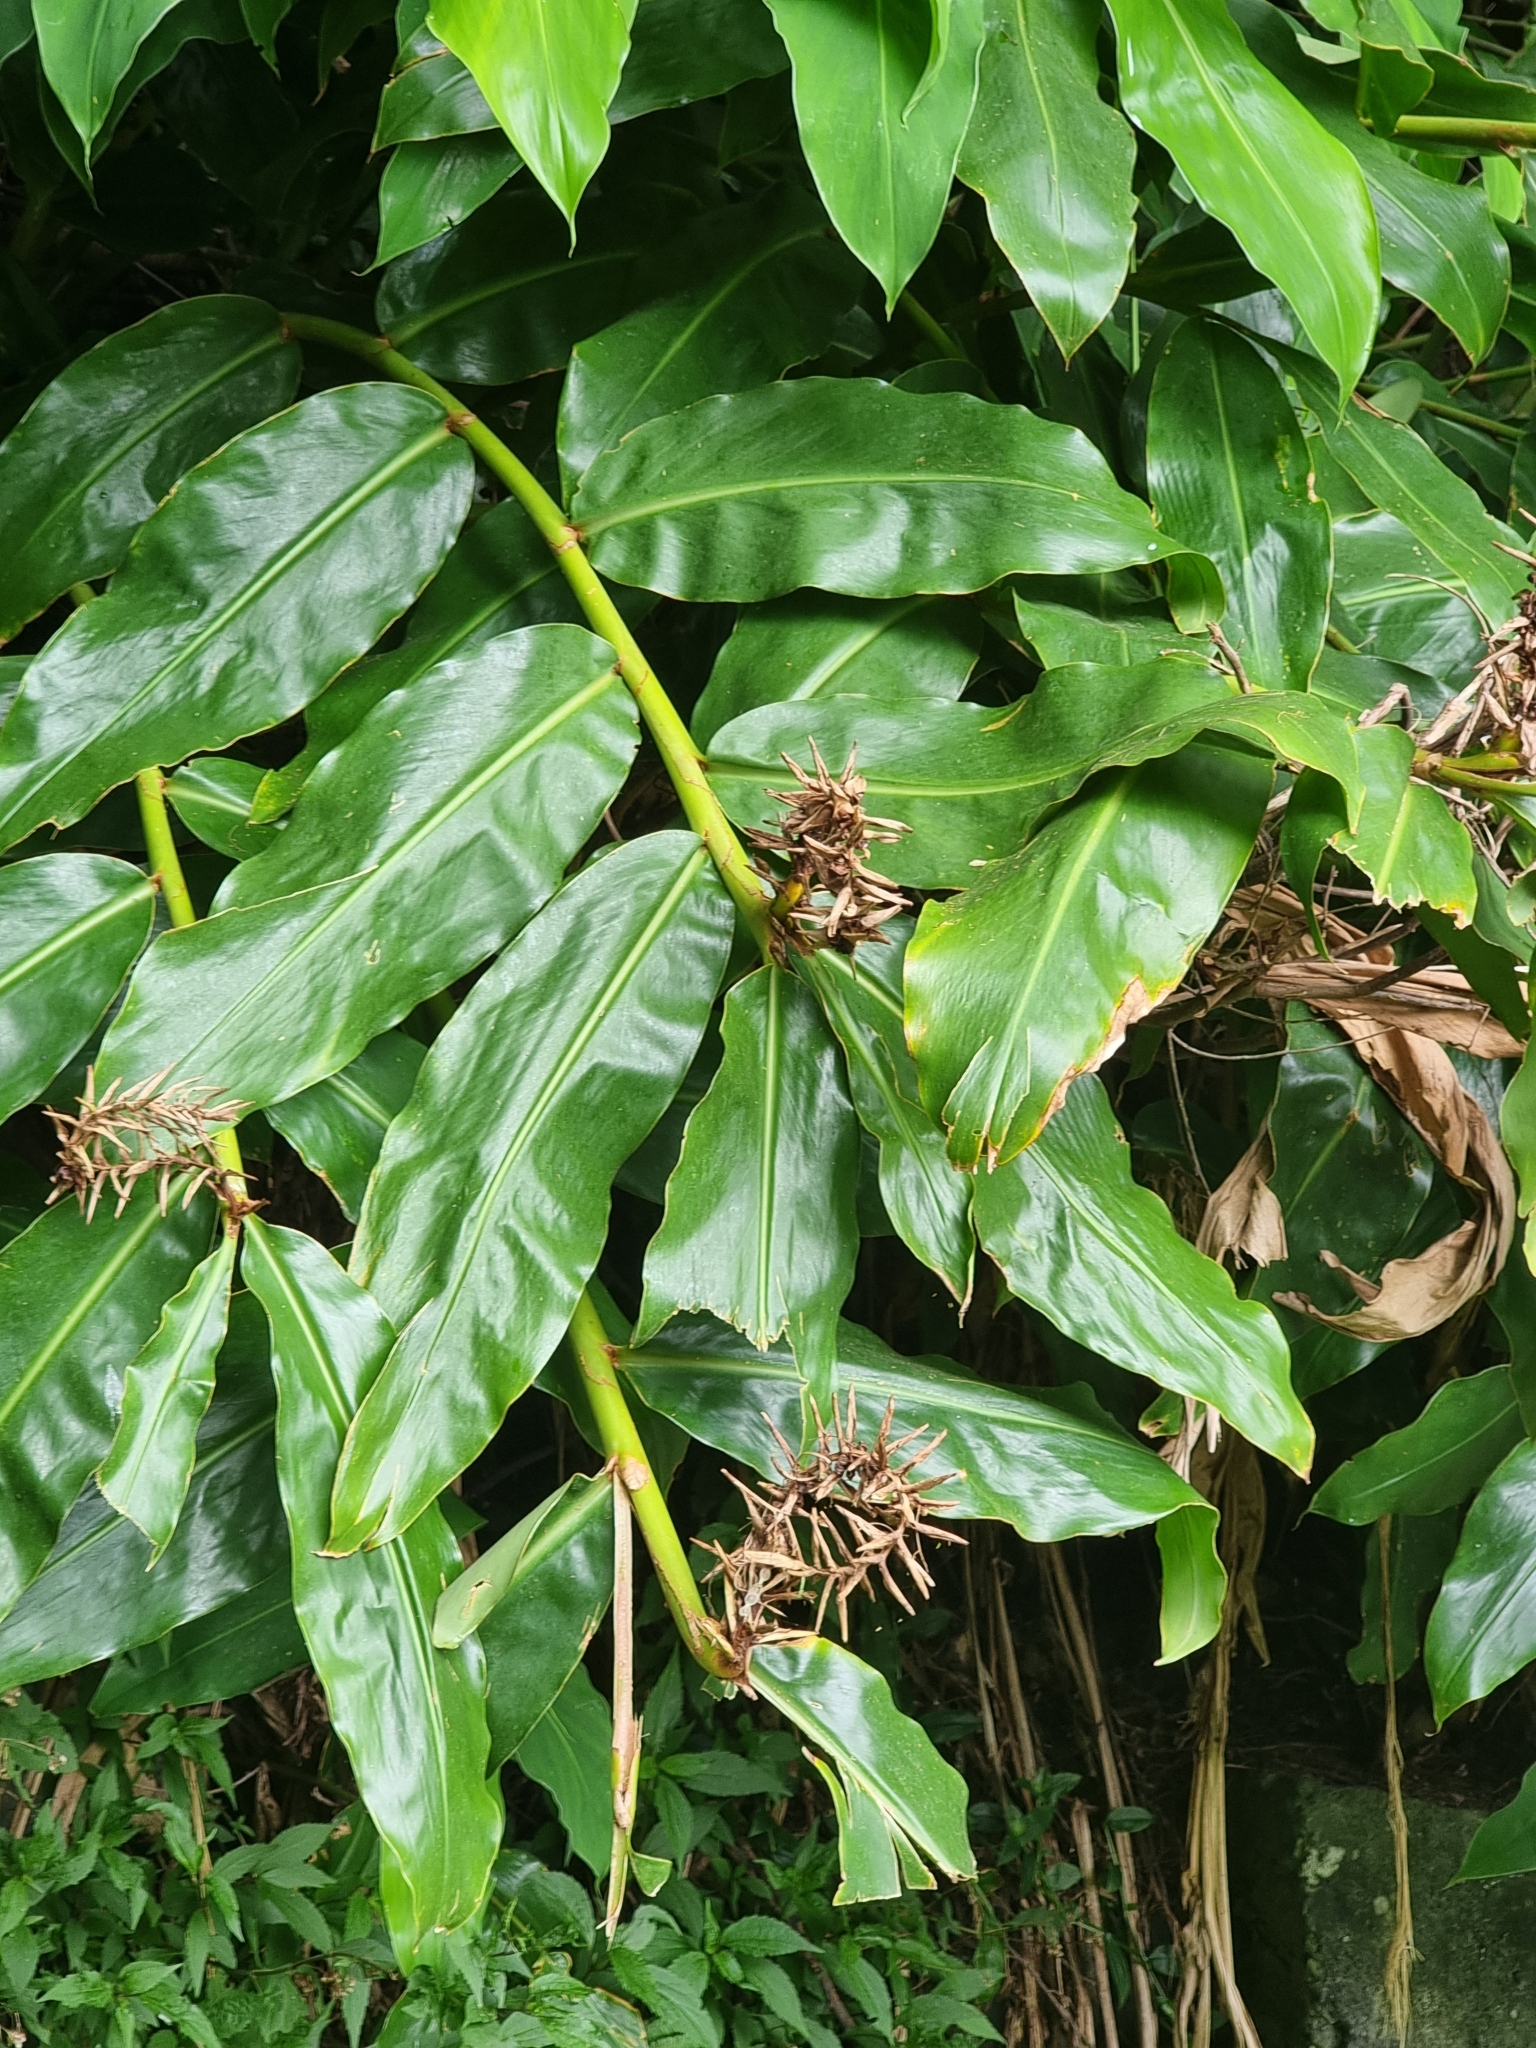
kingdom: Plantae
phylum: Tracheophyta
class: Liliopsida
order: Zingiberales
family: Zingiberaceae
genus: Hedychium
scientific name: Hedychium gardnerianum
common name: Himalayan ginger
